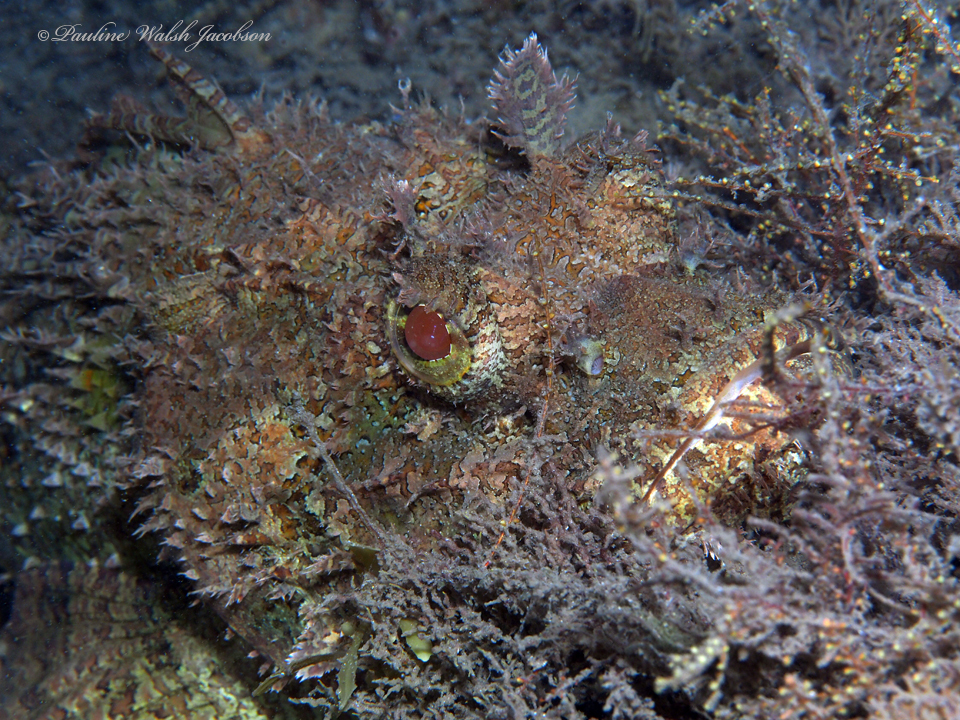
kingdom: Animalia
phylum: Chordata
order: Scorpaeniformes
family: Scorpaenidae
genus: Scorpaena
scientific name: Scorpaena plumieri
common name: Spotted scorpionfish
